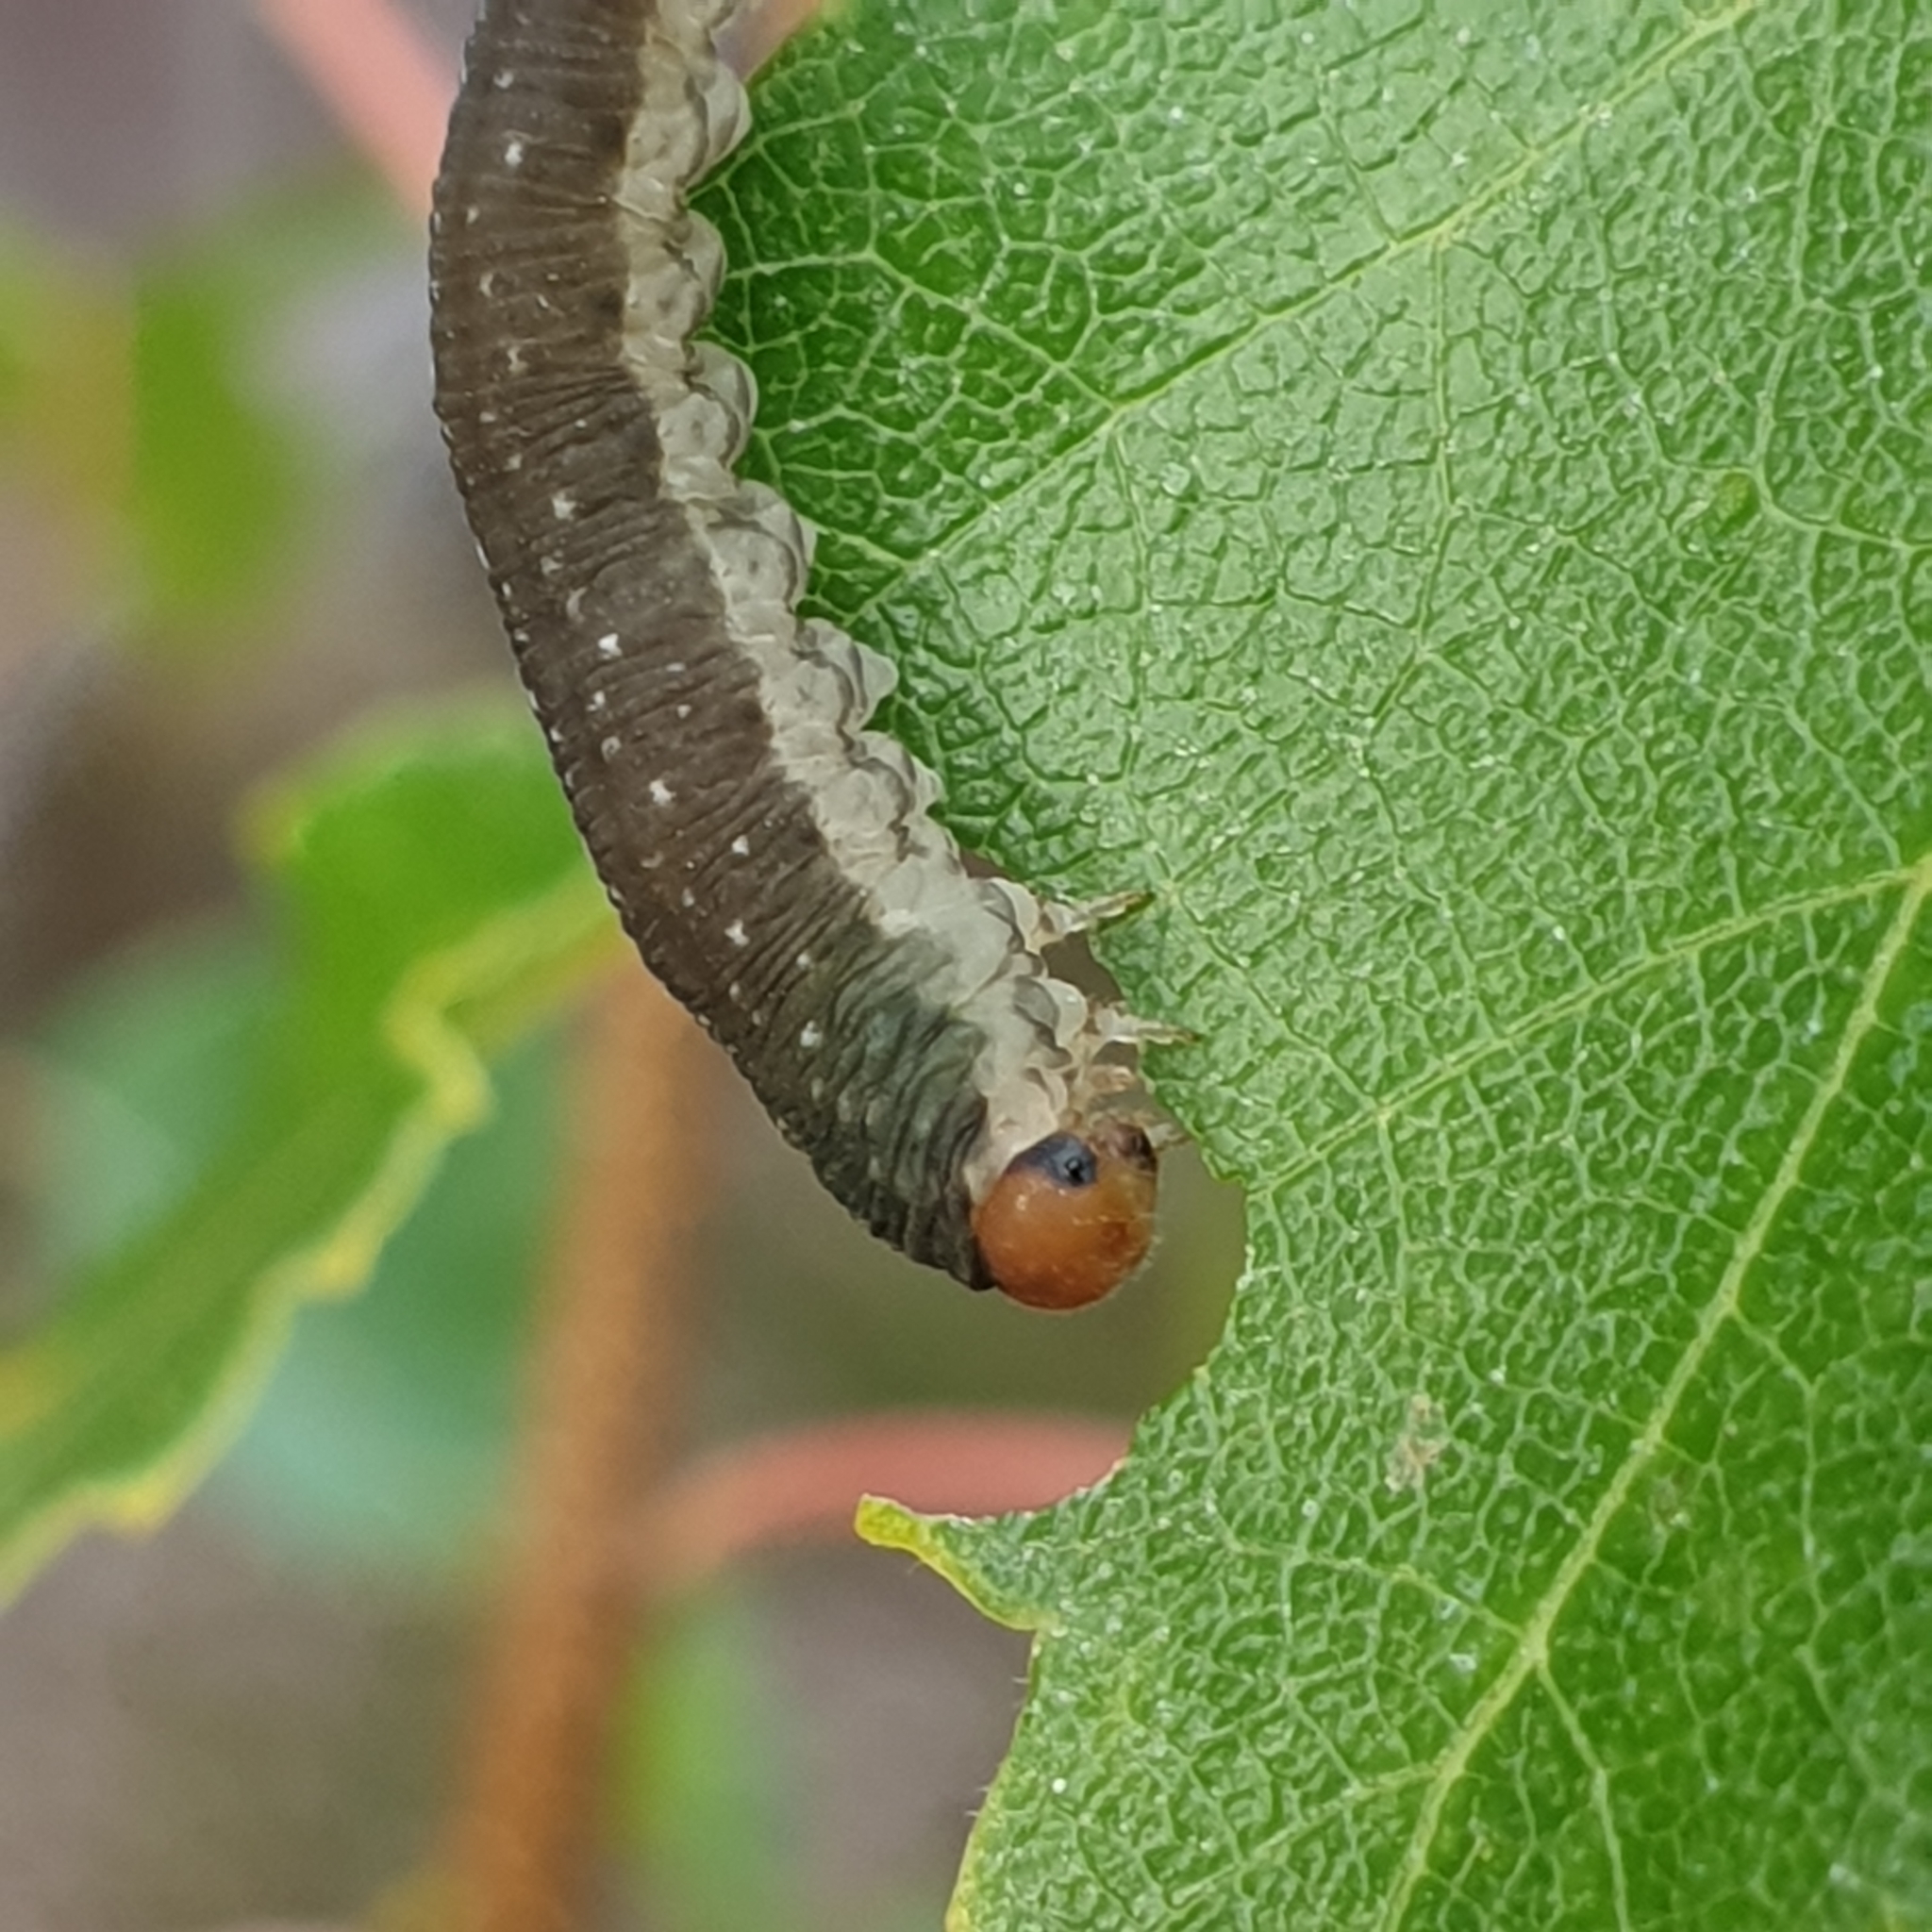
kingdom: Animalia
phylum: Arthropoda
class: Insecta
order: Hymenoptera
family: Tenthredinidae
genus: Empria
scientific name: Empria candidata
